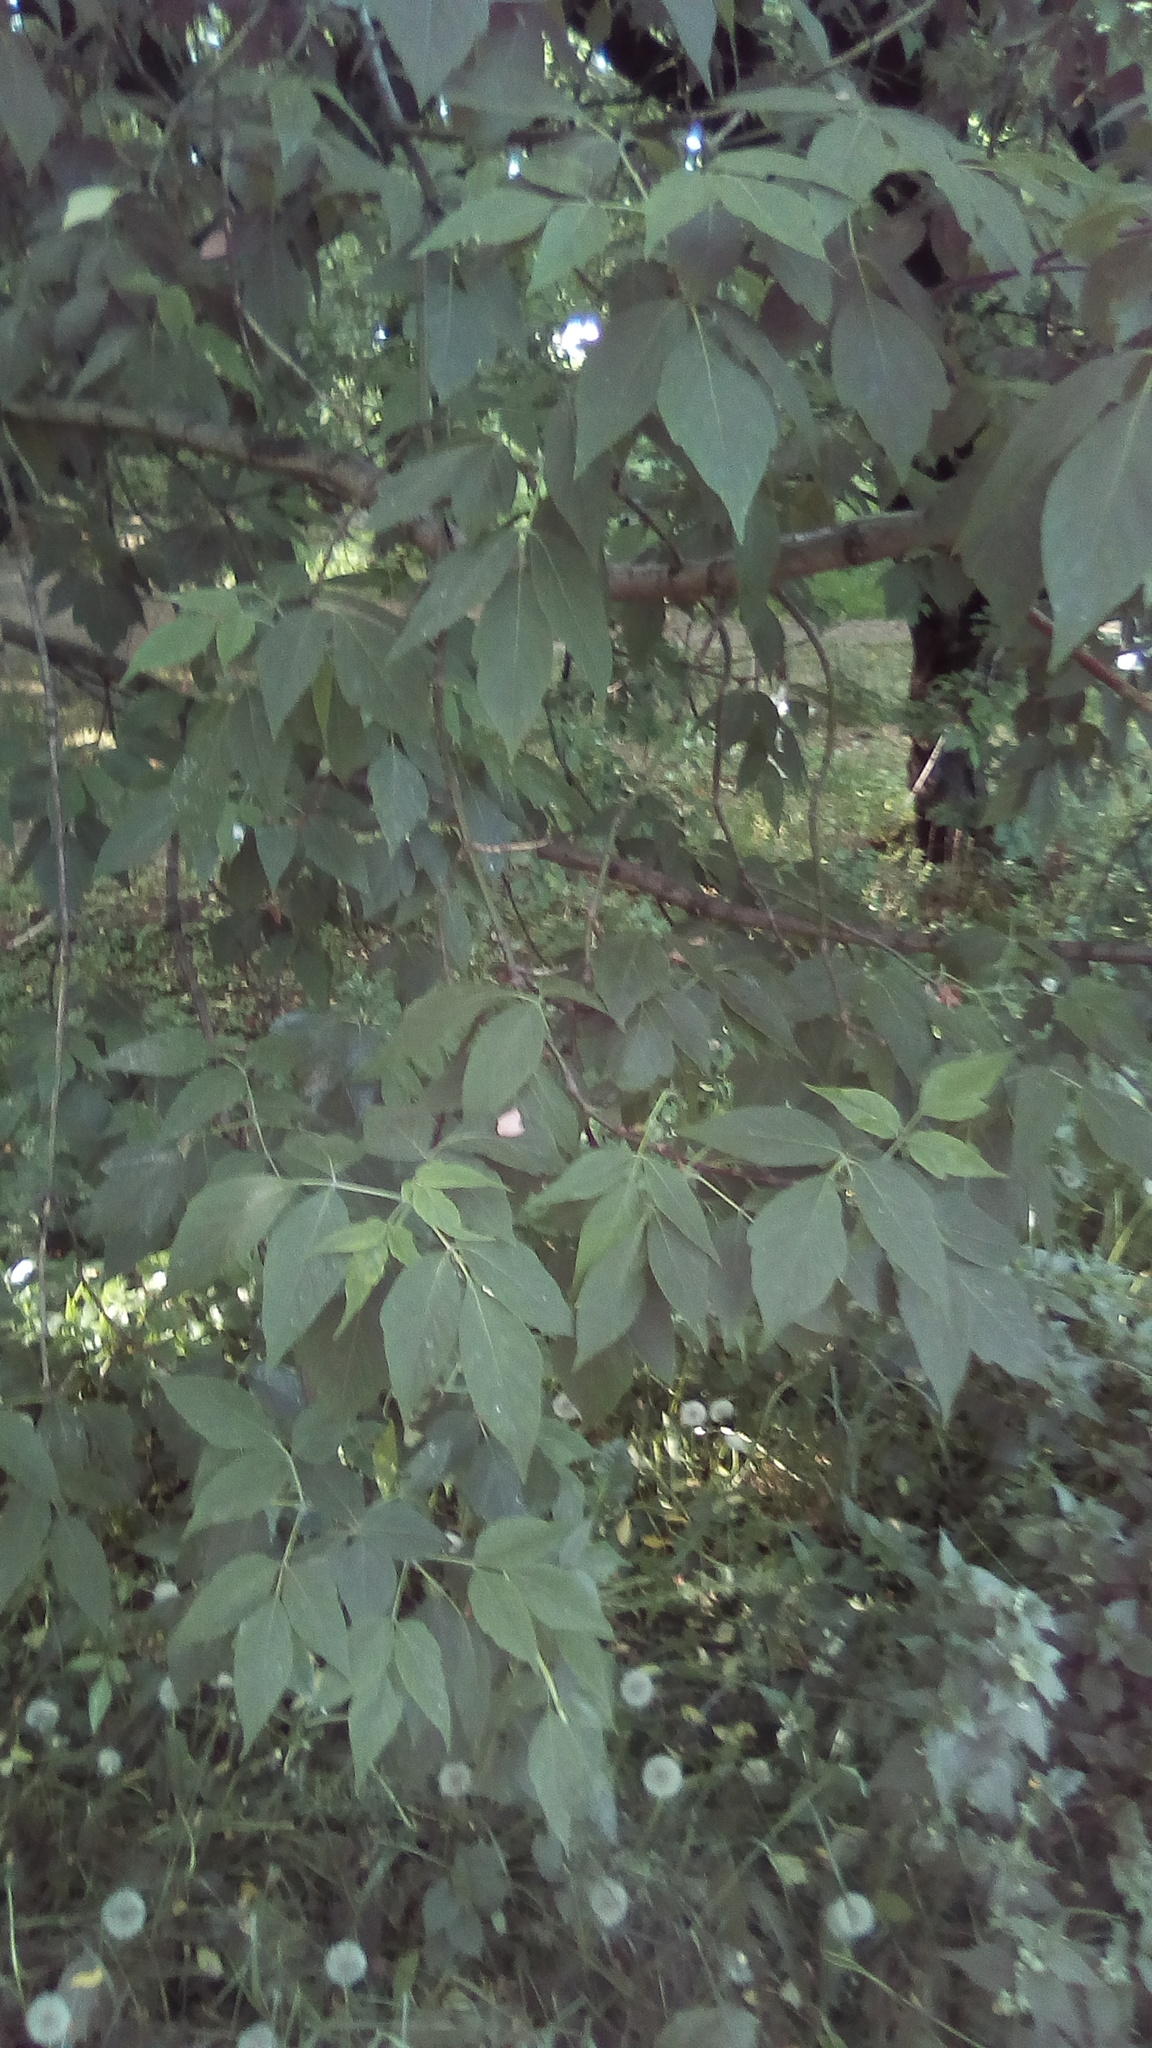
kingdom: Plantae
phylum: Tracheophyta
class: Magnoliopsida
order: Sapindales
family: Sapindaceae
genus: Acer
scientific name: Acer negundo
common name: Ashleaf maple
